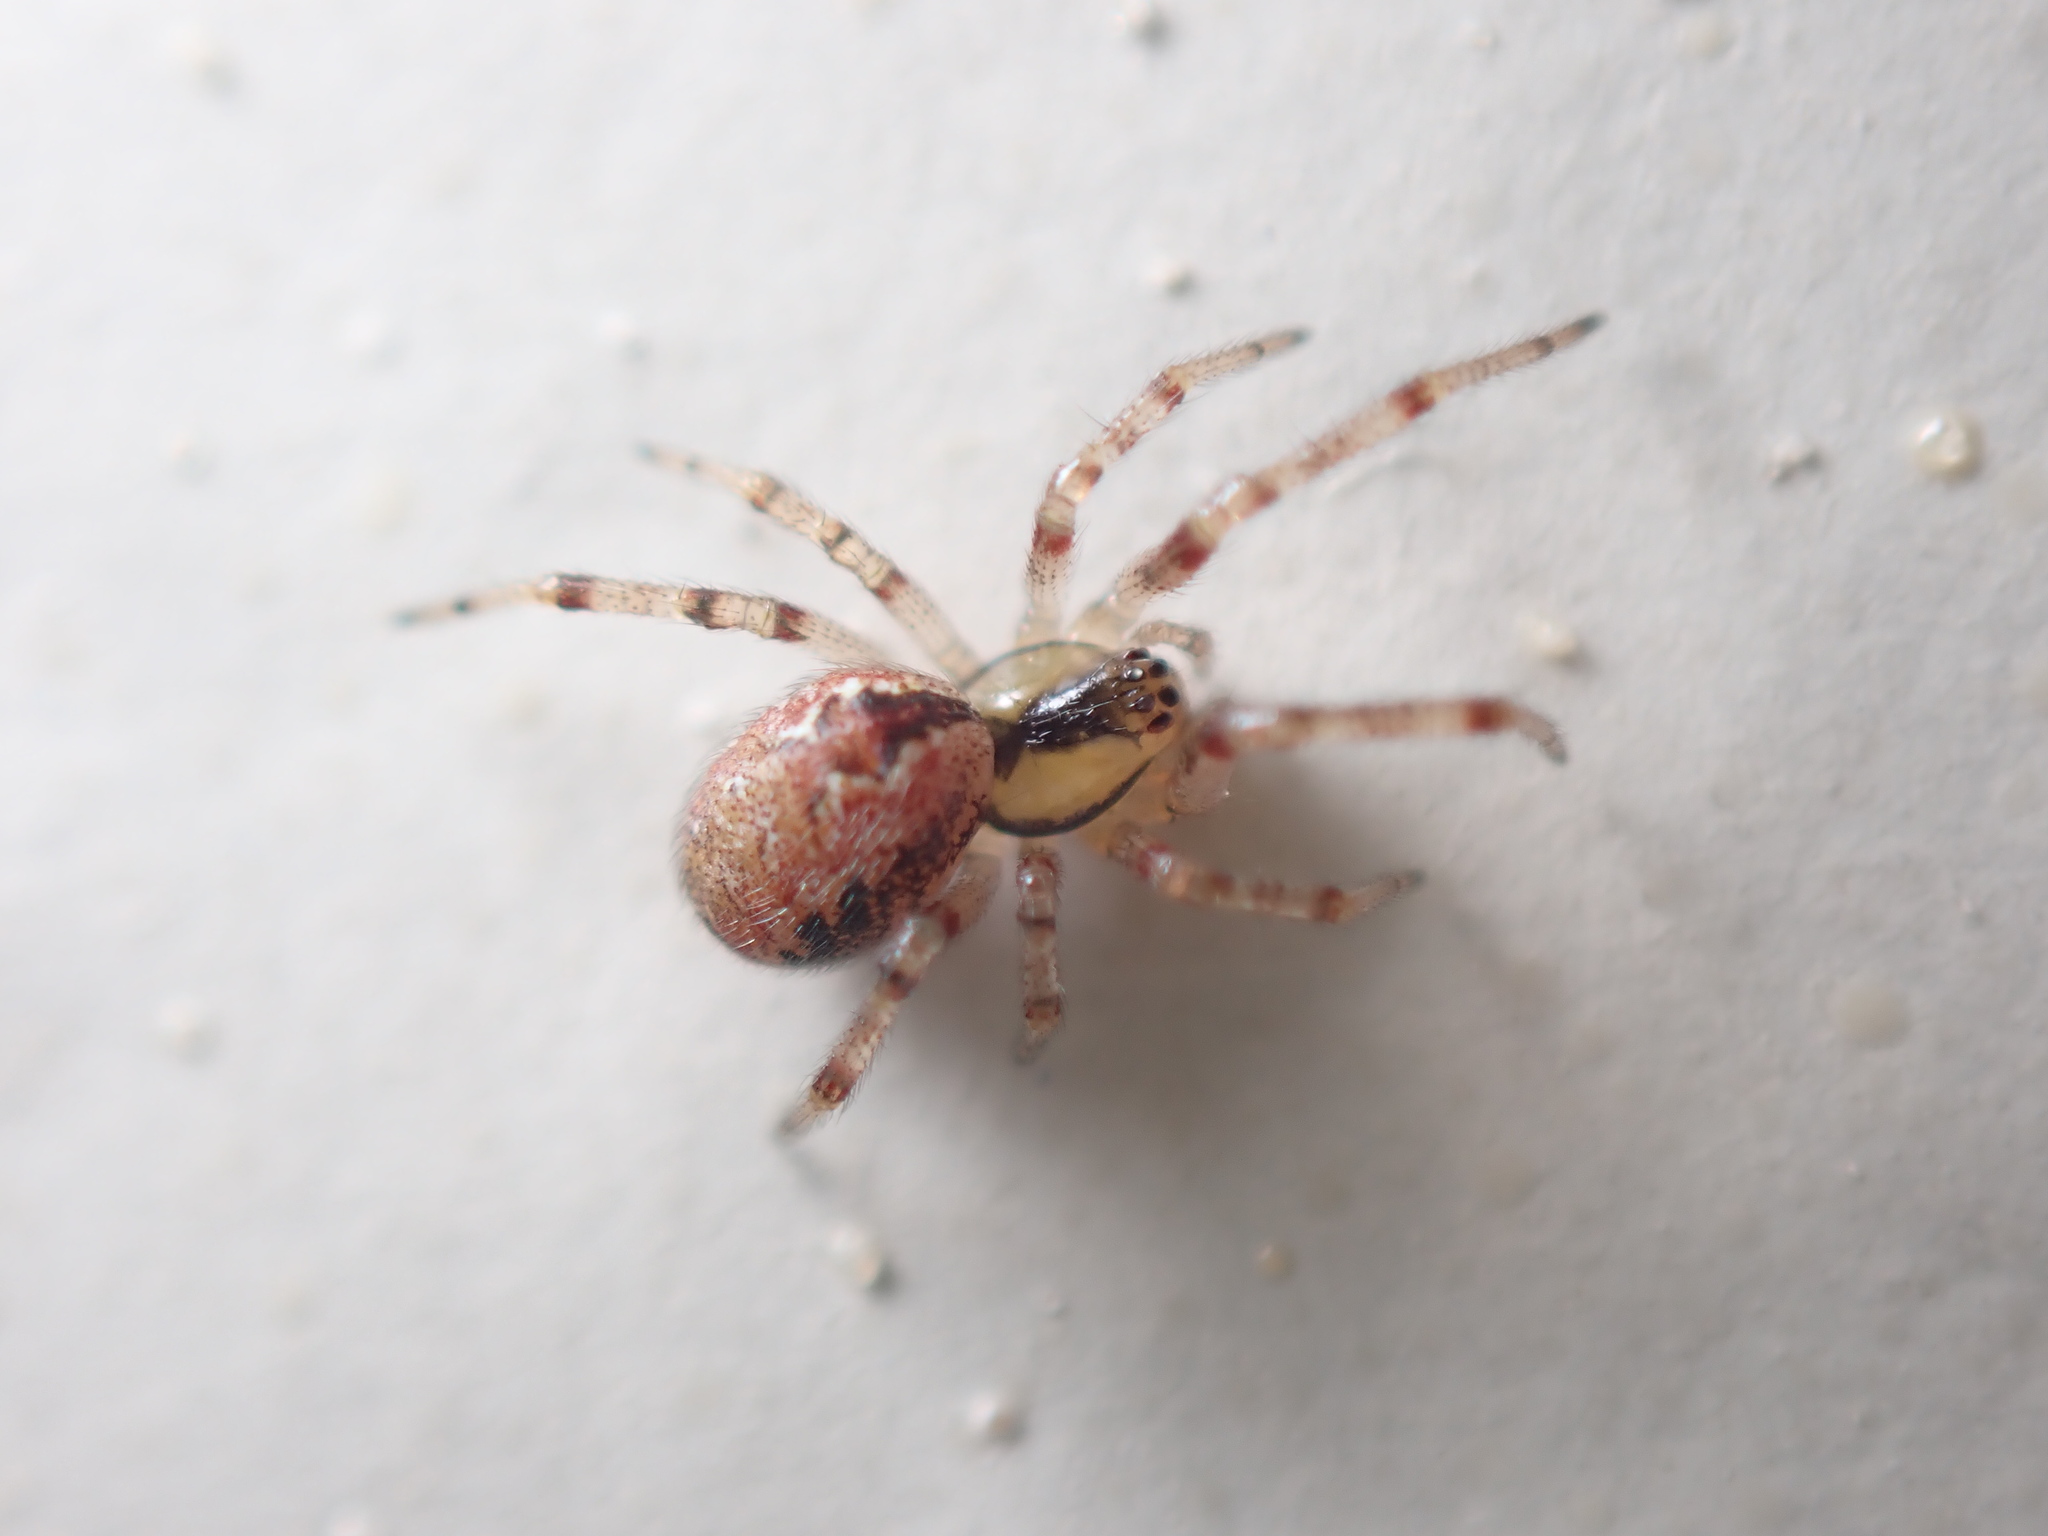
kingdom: Animalia
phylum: Arthropoda
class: Arachnida
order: Araneae
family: Theridiidae
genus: Kochiura
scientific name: Kochiura aulica
